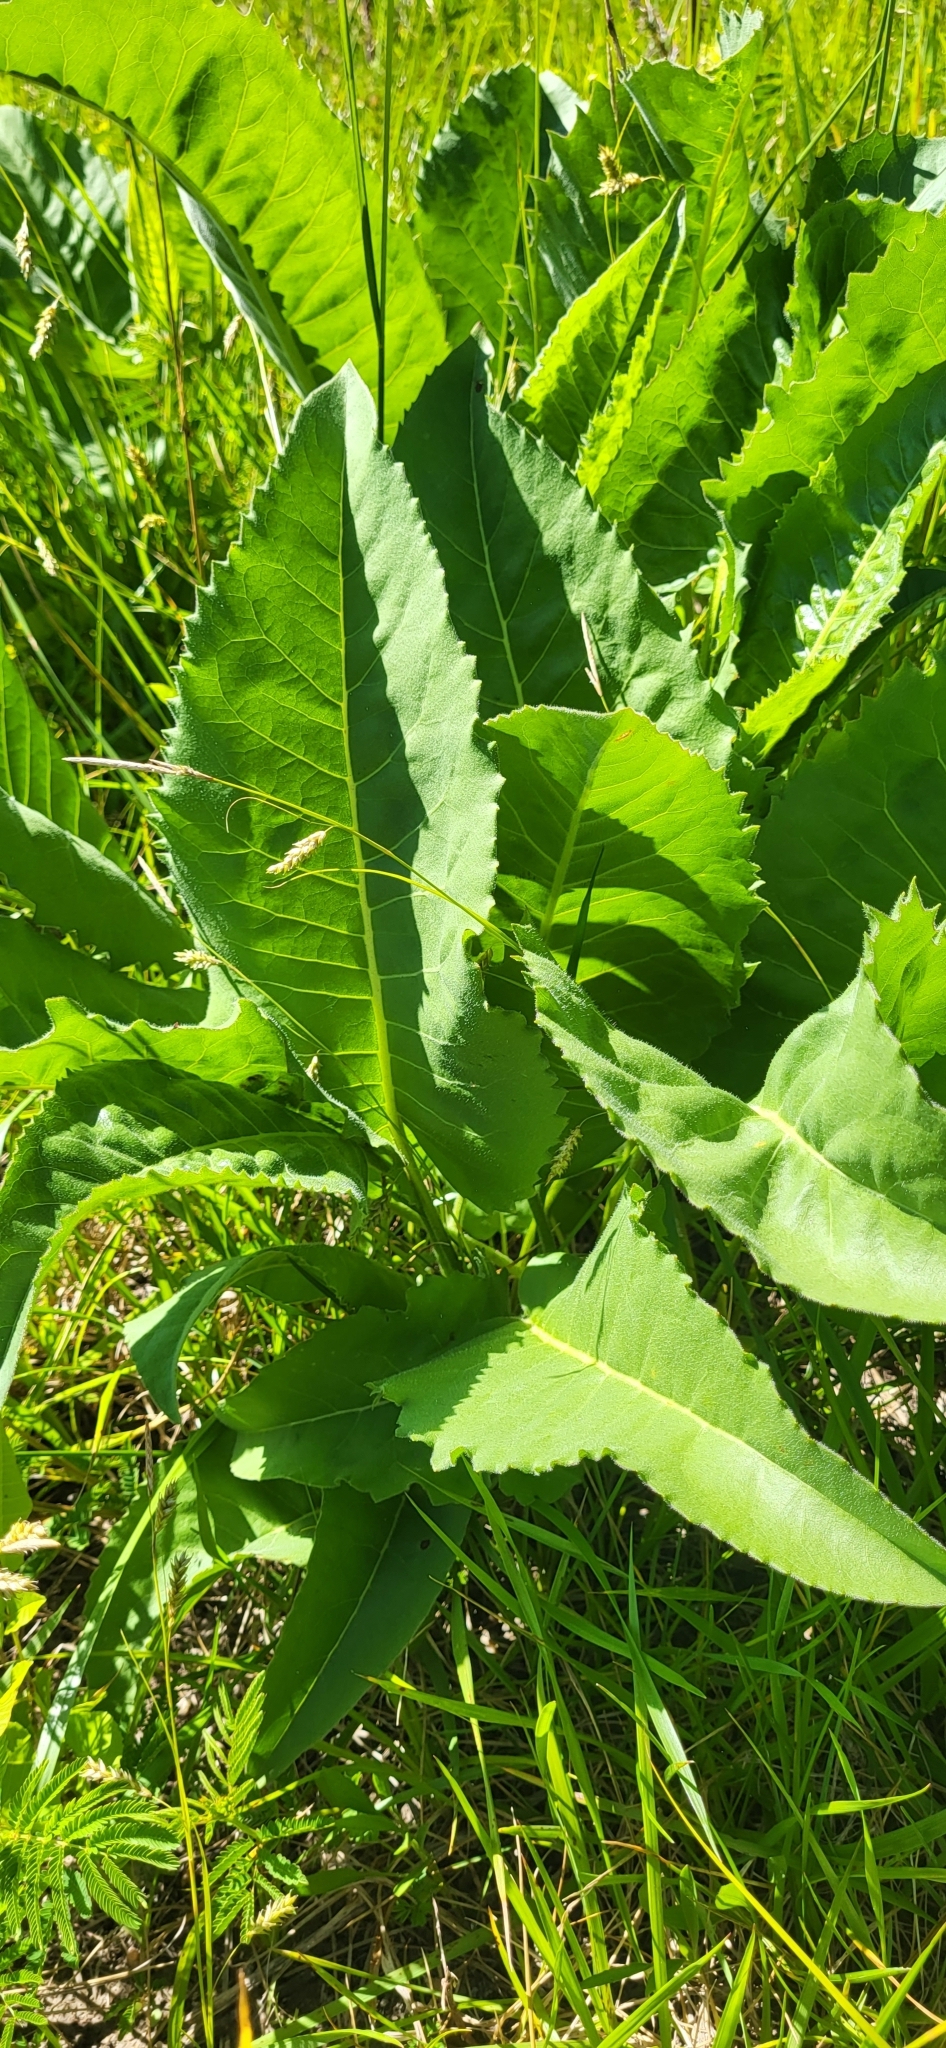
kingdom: Plantae
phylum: Tracheophyta
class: Magnoliopsida
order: Asterales
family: Asteraceae
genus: Silphium
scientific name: Silphium terebinthinaceum
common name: Basal-leaf rosinweed
